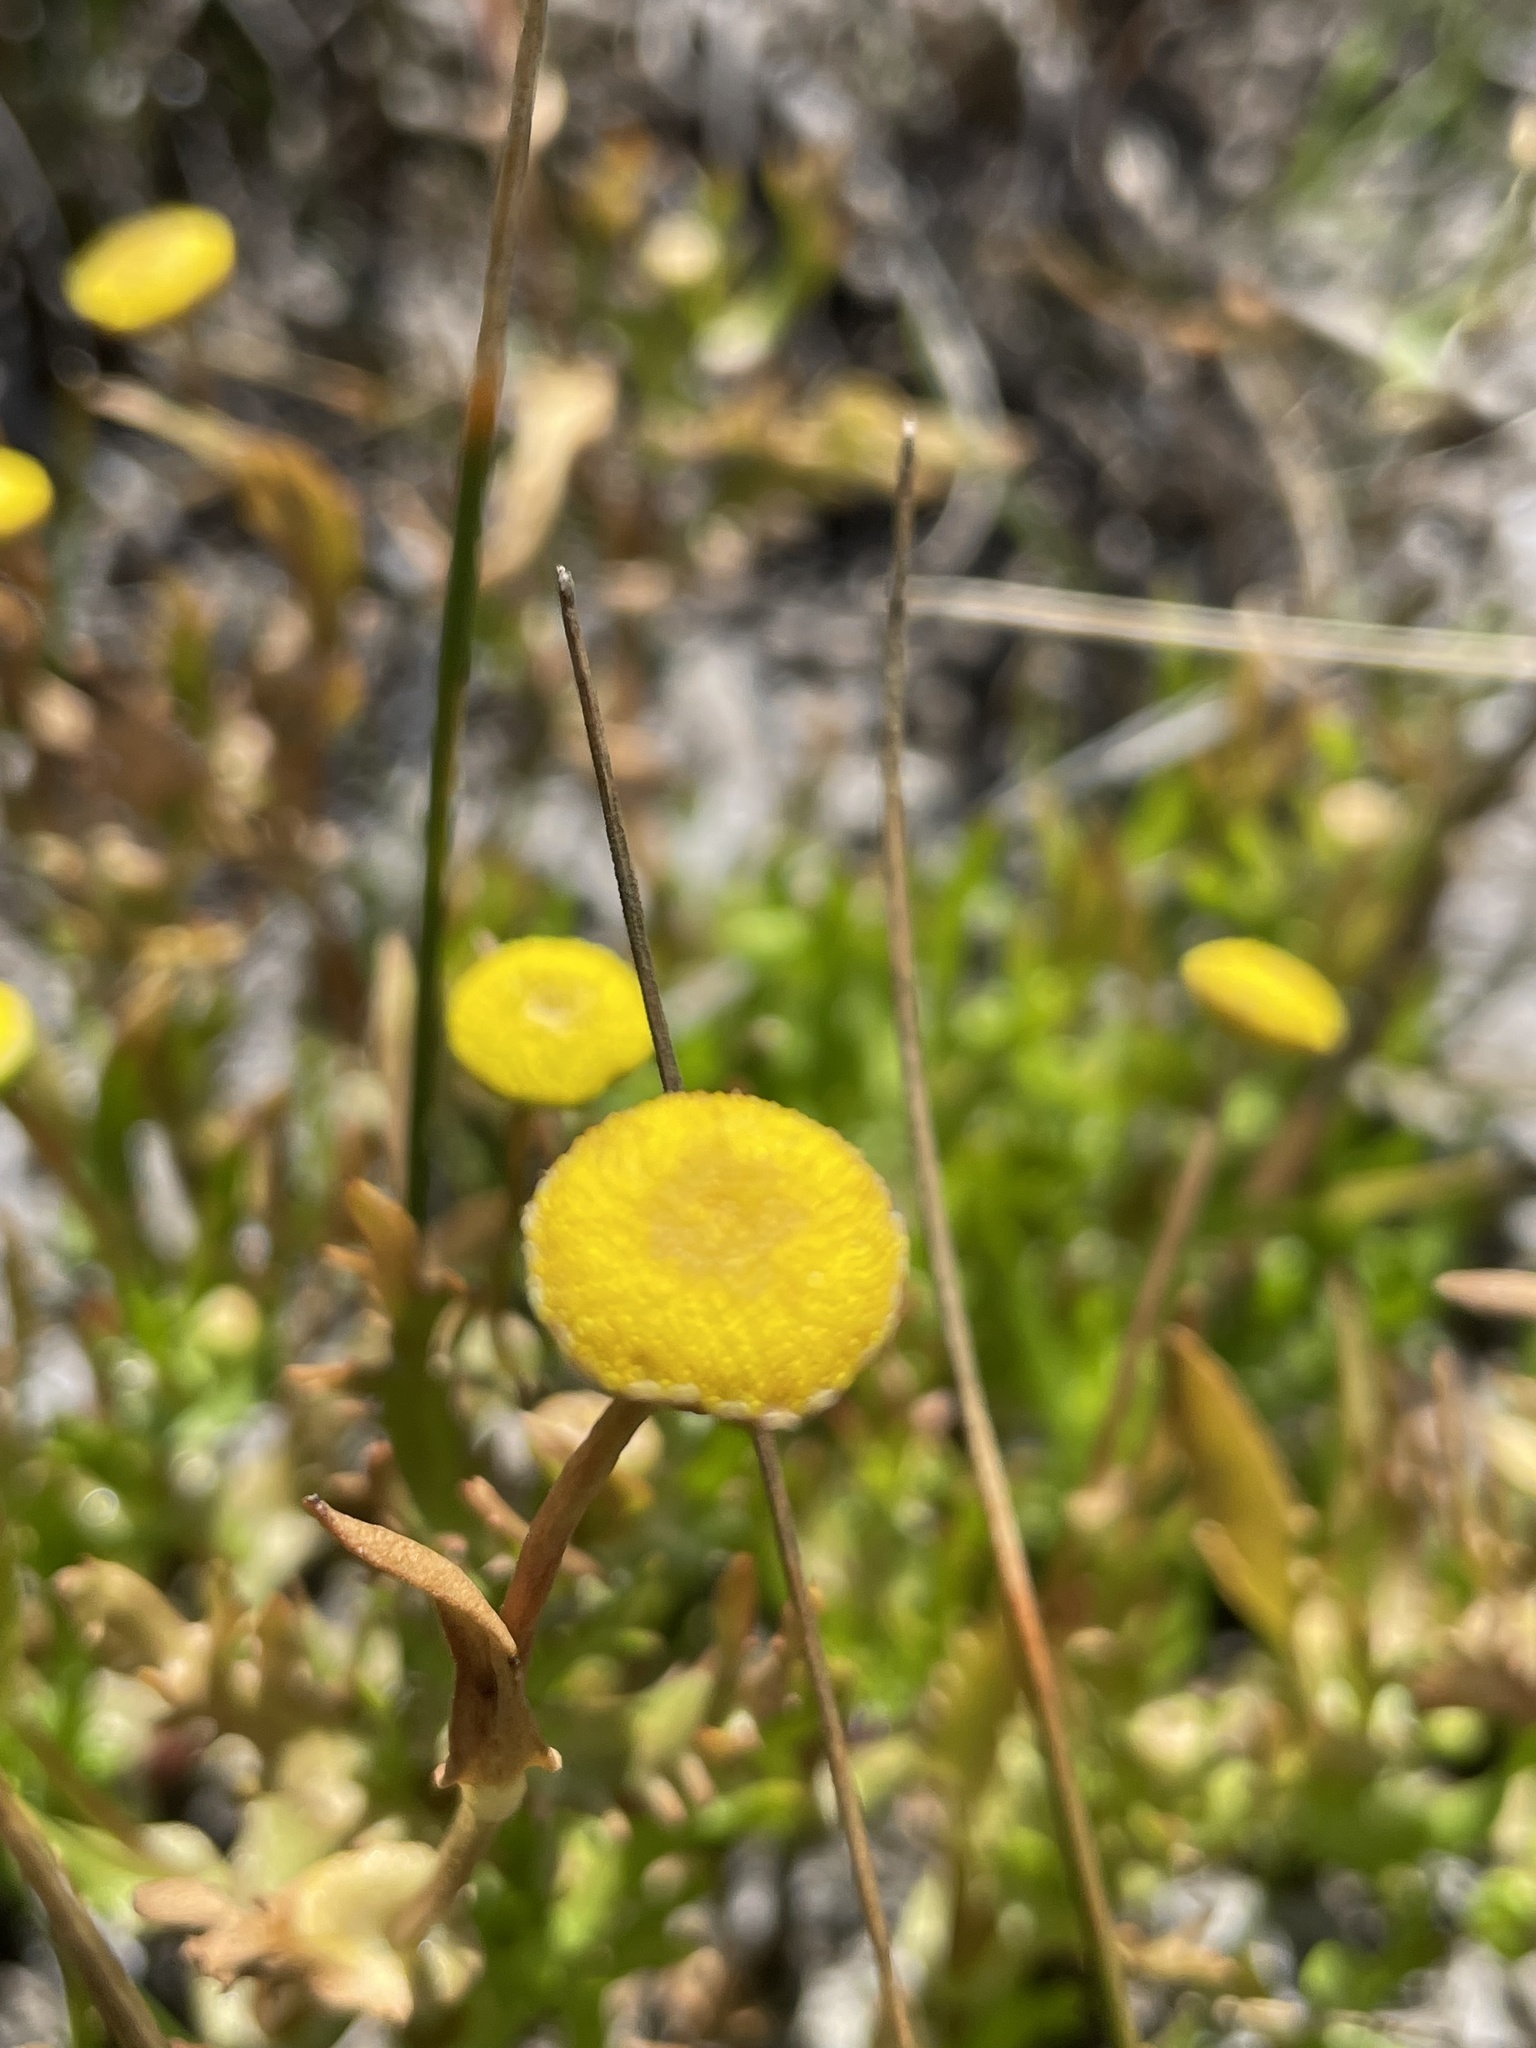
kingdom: Plantae
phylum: Tracheophyta
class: Magnoliopsida
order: Asterales
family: Asteraceae
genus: Cotula
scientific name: Cotula coronopifolia
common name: Buttonweed
